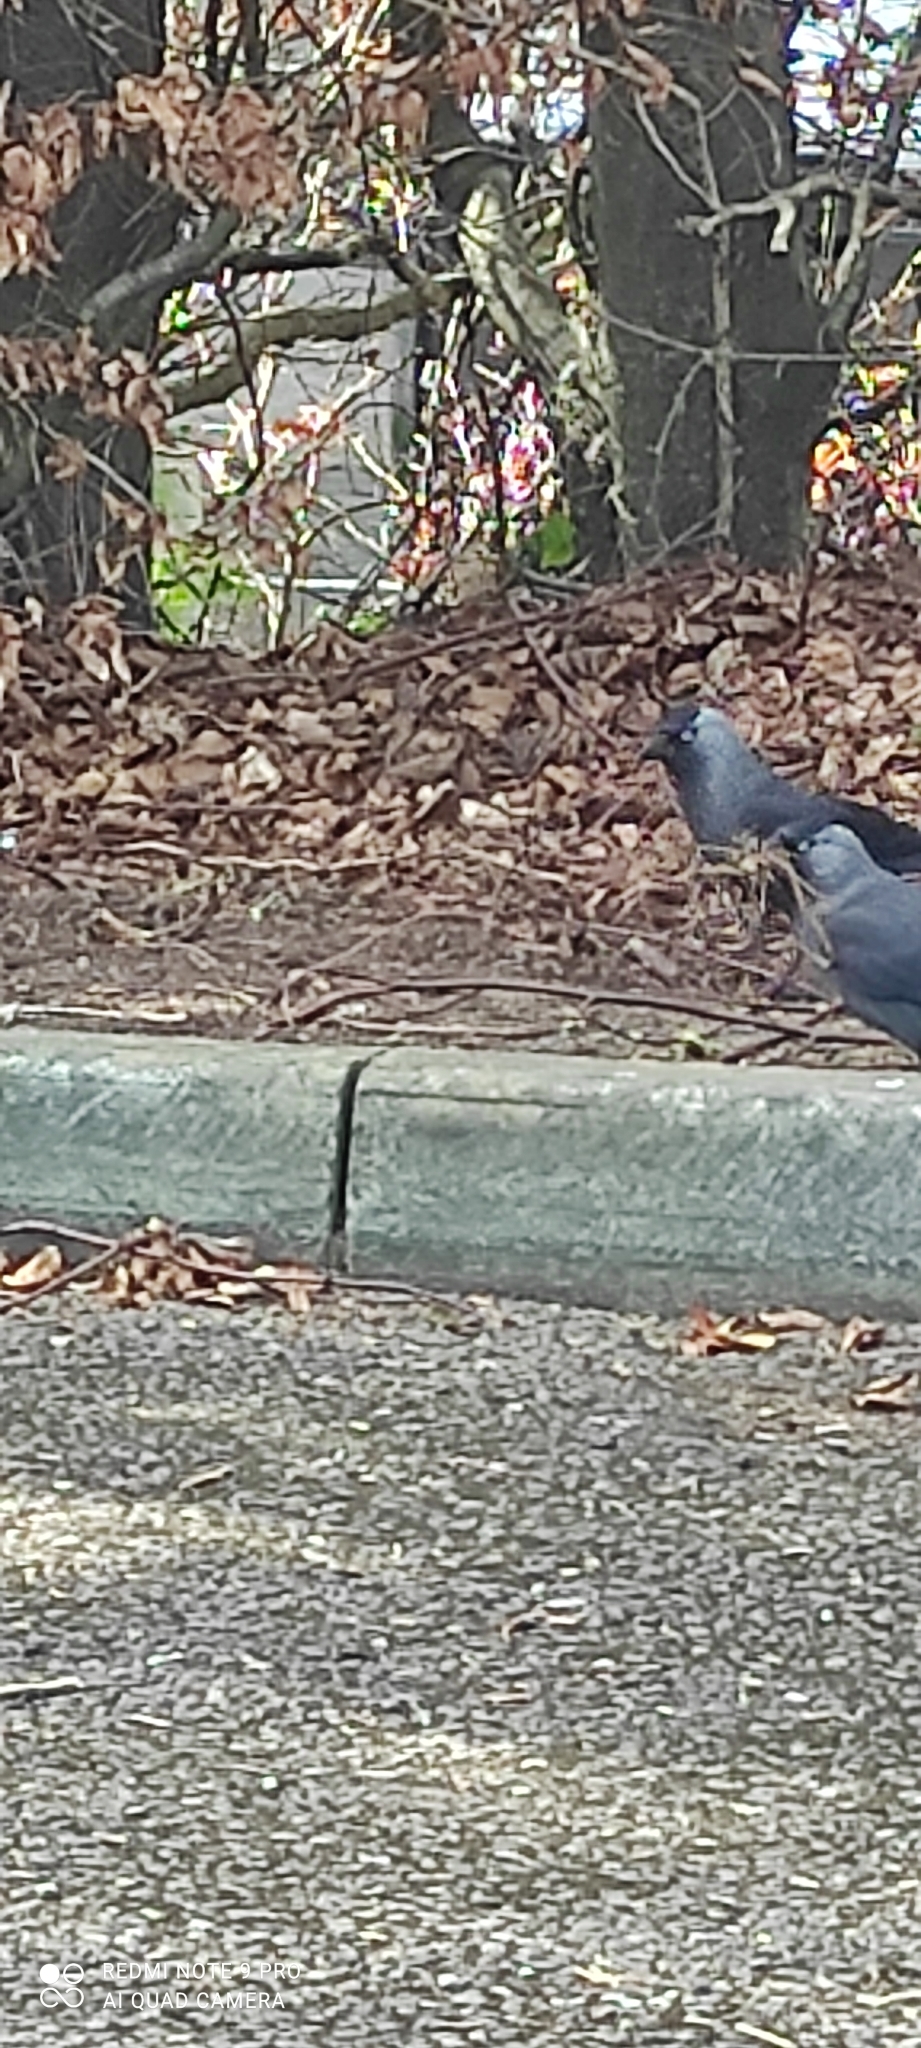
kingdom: Animalia
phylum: Chordata
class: Aves
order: Passeriformes
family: Corvidae
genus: Coloeus
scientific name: Coloeus monedula
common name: Western jackdaw
